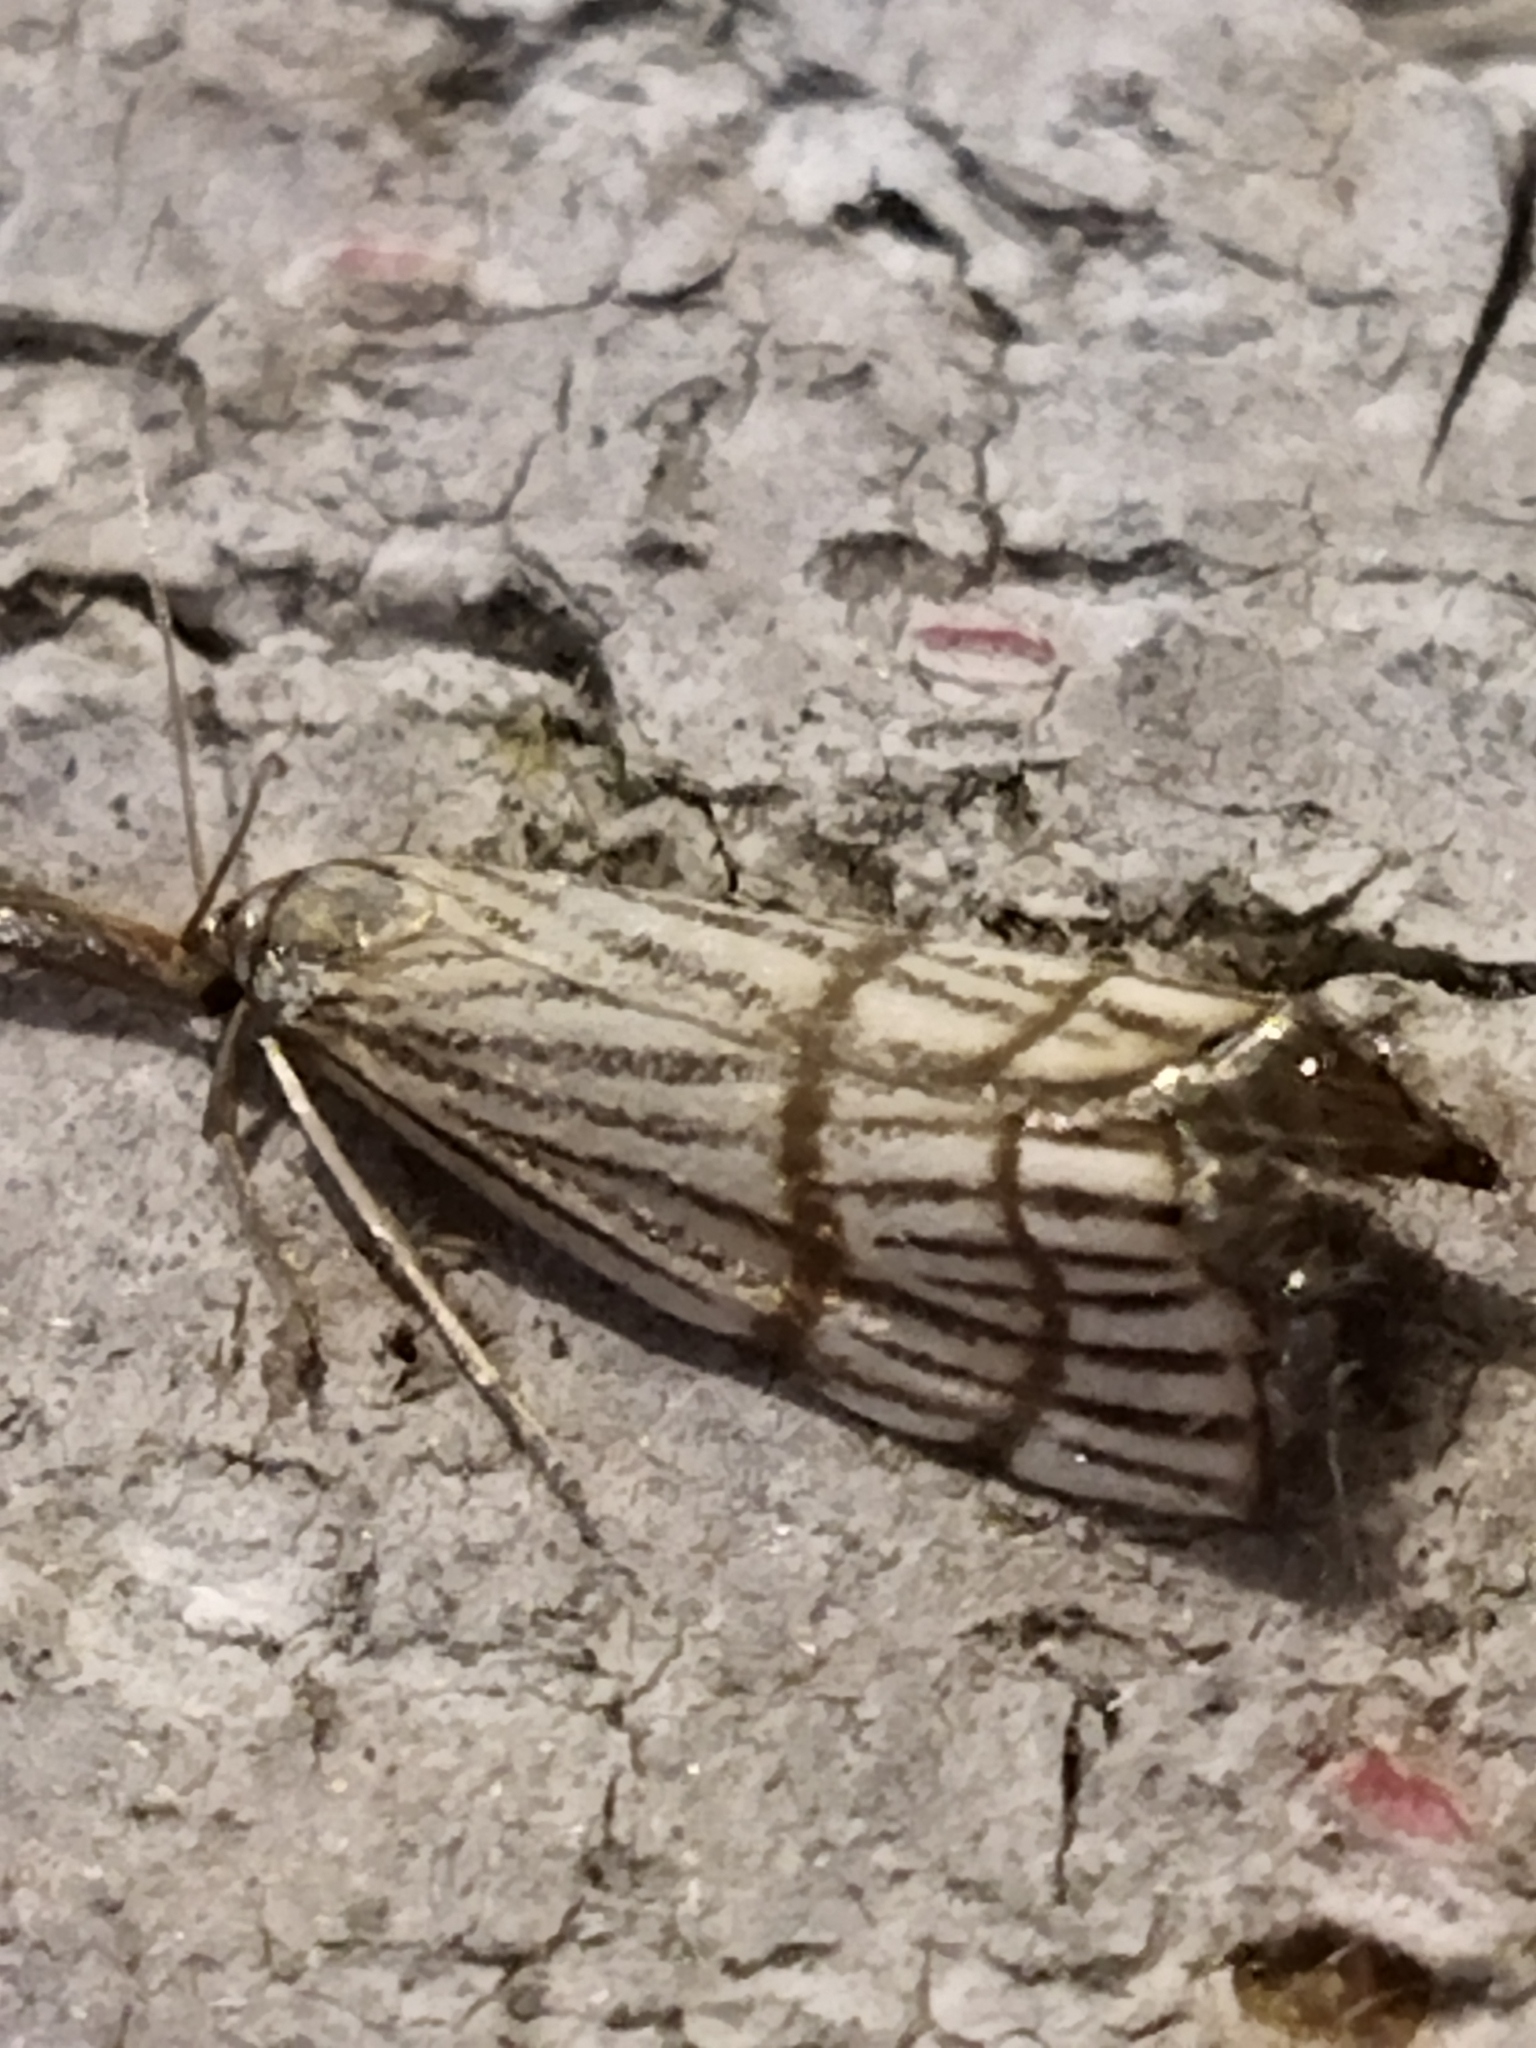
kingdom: Animalia
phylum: Arthropoda
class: Insecta
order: Lepidoptera
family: Crambidae
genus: Chrysocrambus
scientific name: Chrysocrambus linetella
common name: Orange-bar grass-veneer
